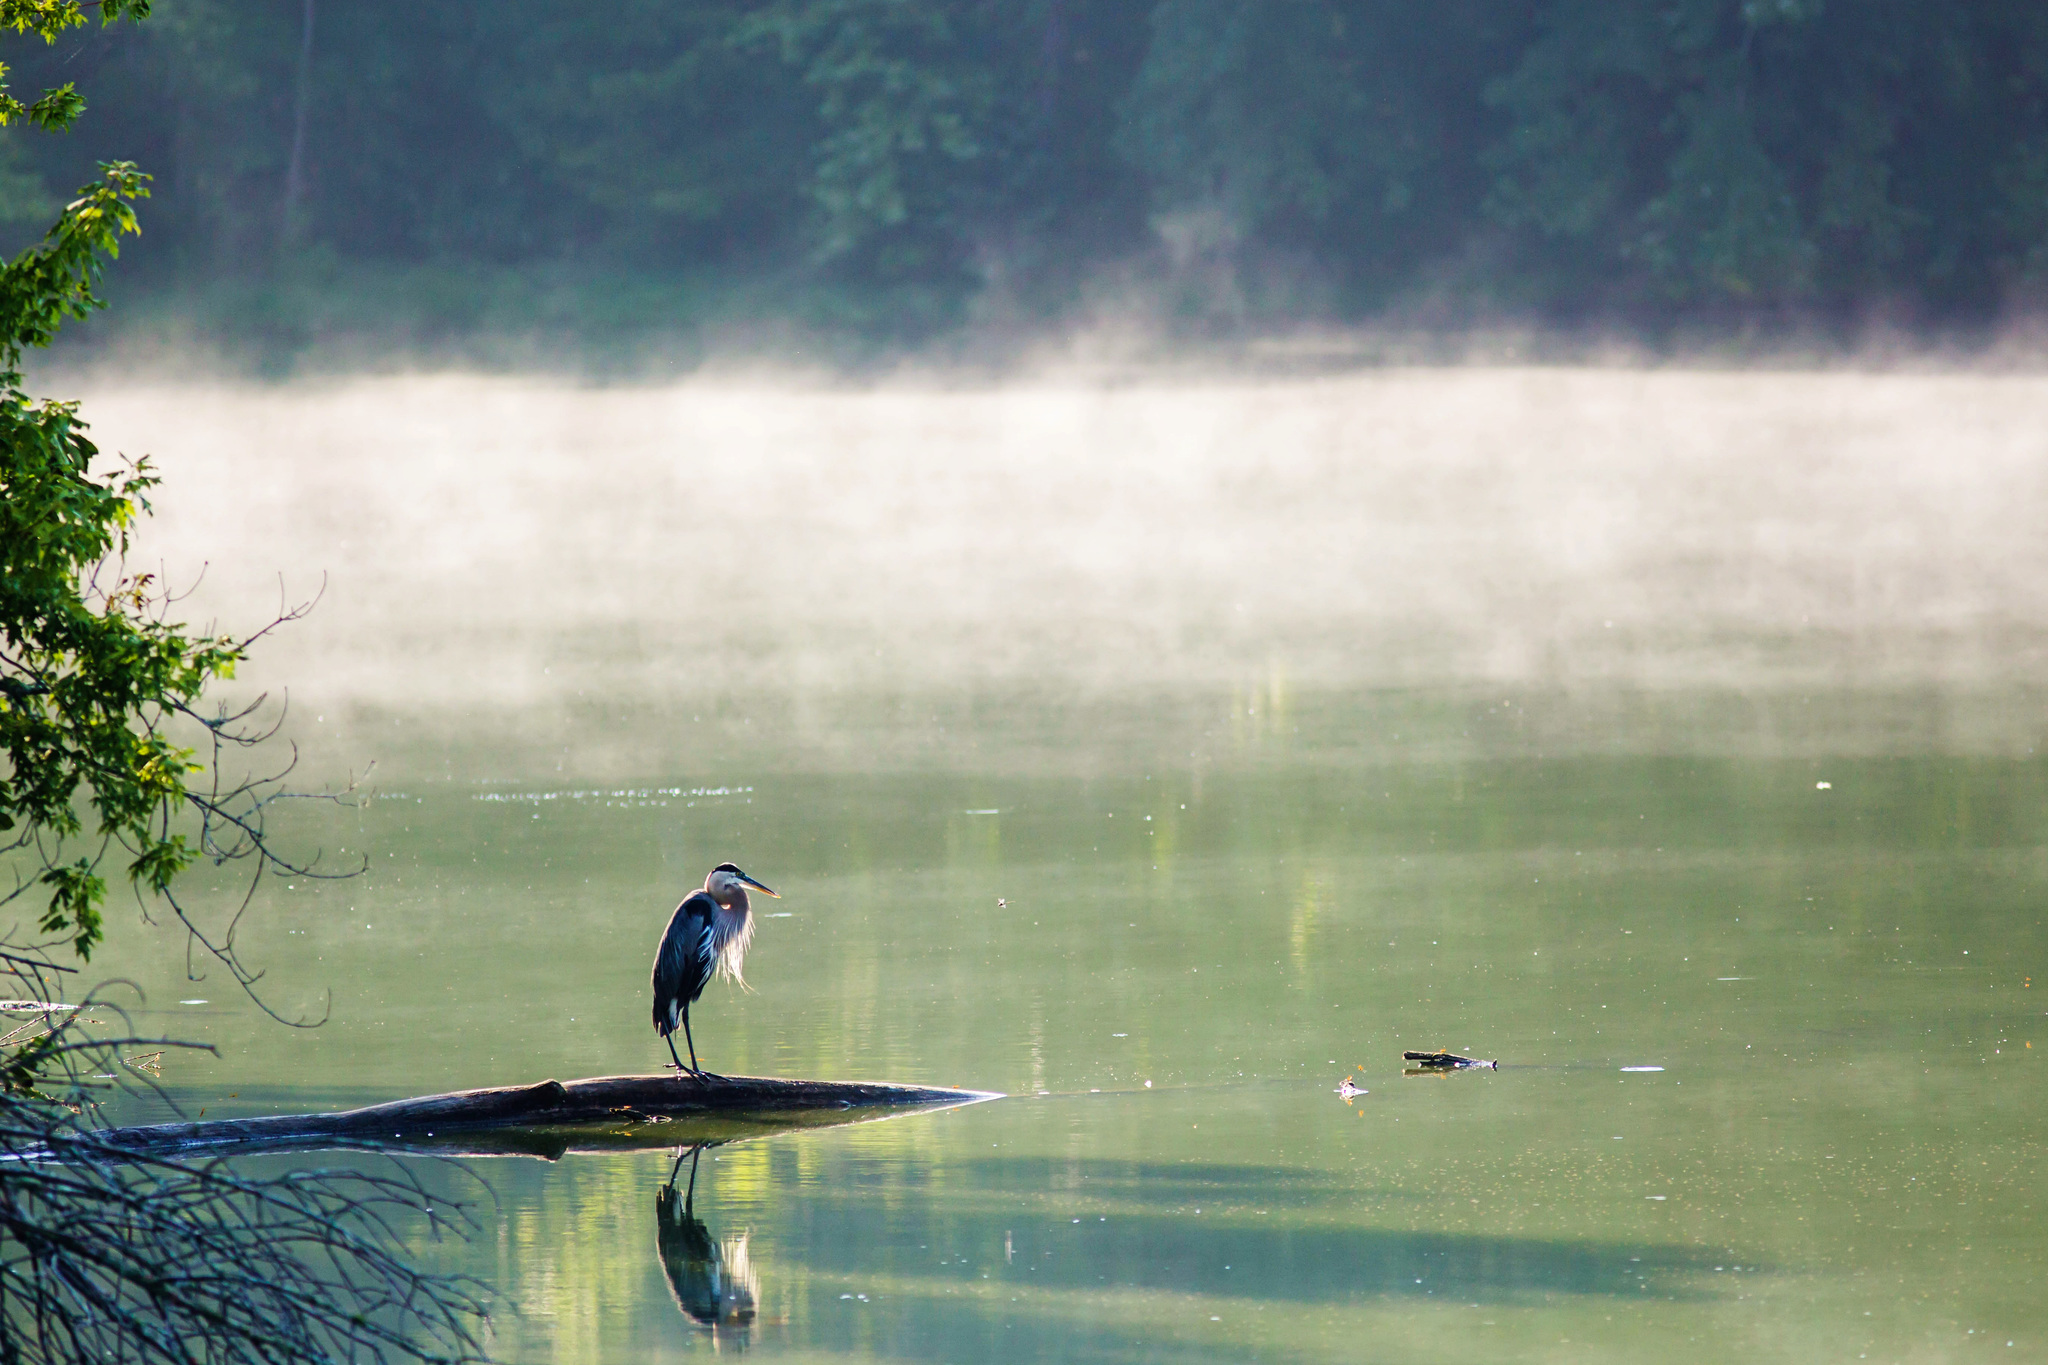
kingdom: Animalia
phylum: Chordata
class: Aves
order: Pelecaniformes
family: Ardeidae
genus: Ardea
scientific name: Ardea herodias
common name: Great blue heron
